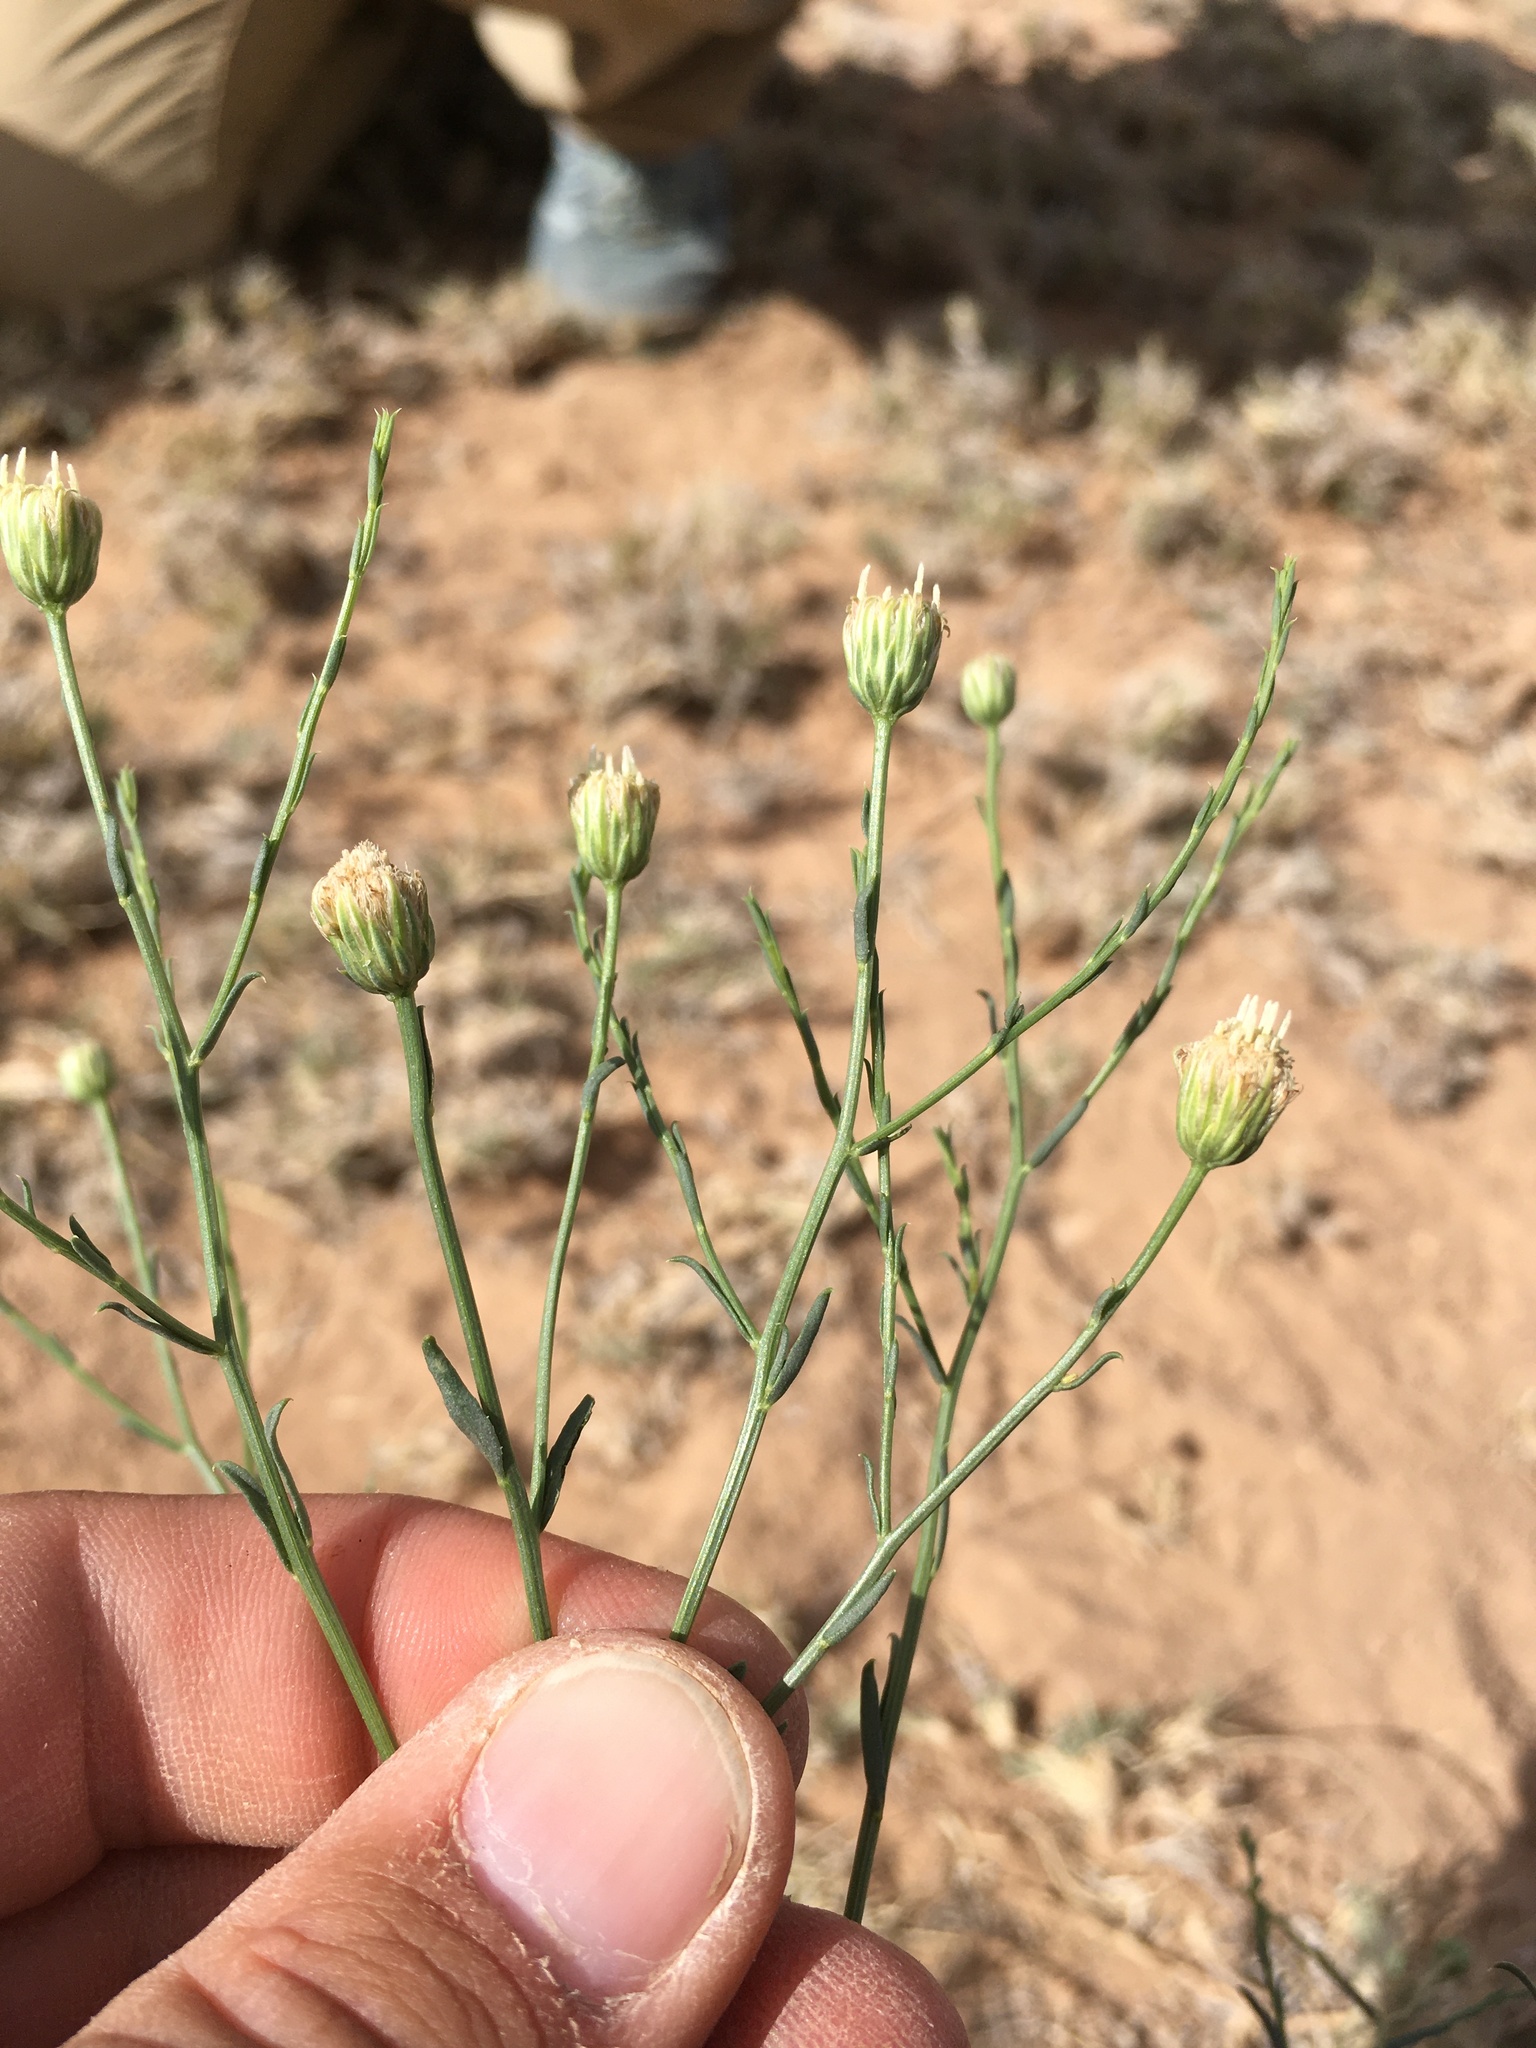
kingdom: Plantae
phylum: Tracheophyta
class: Magnoliopsida
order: Asterales
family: Asteraceae
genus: Baccharis
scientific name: Baccharis wrightii
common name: Wright's baccharis
